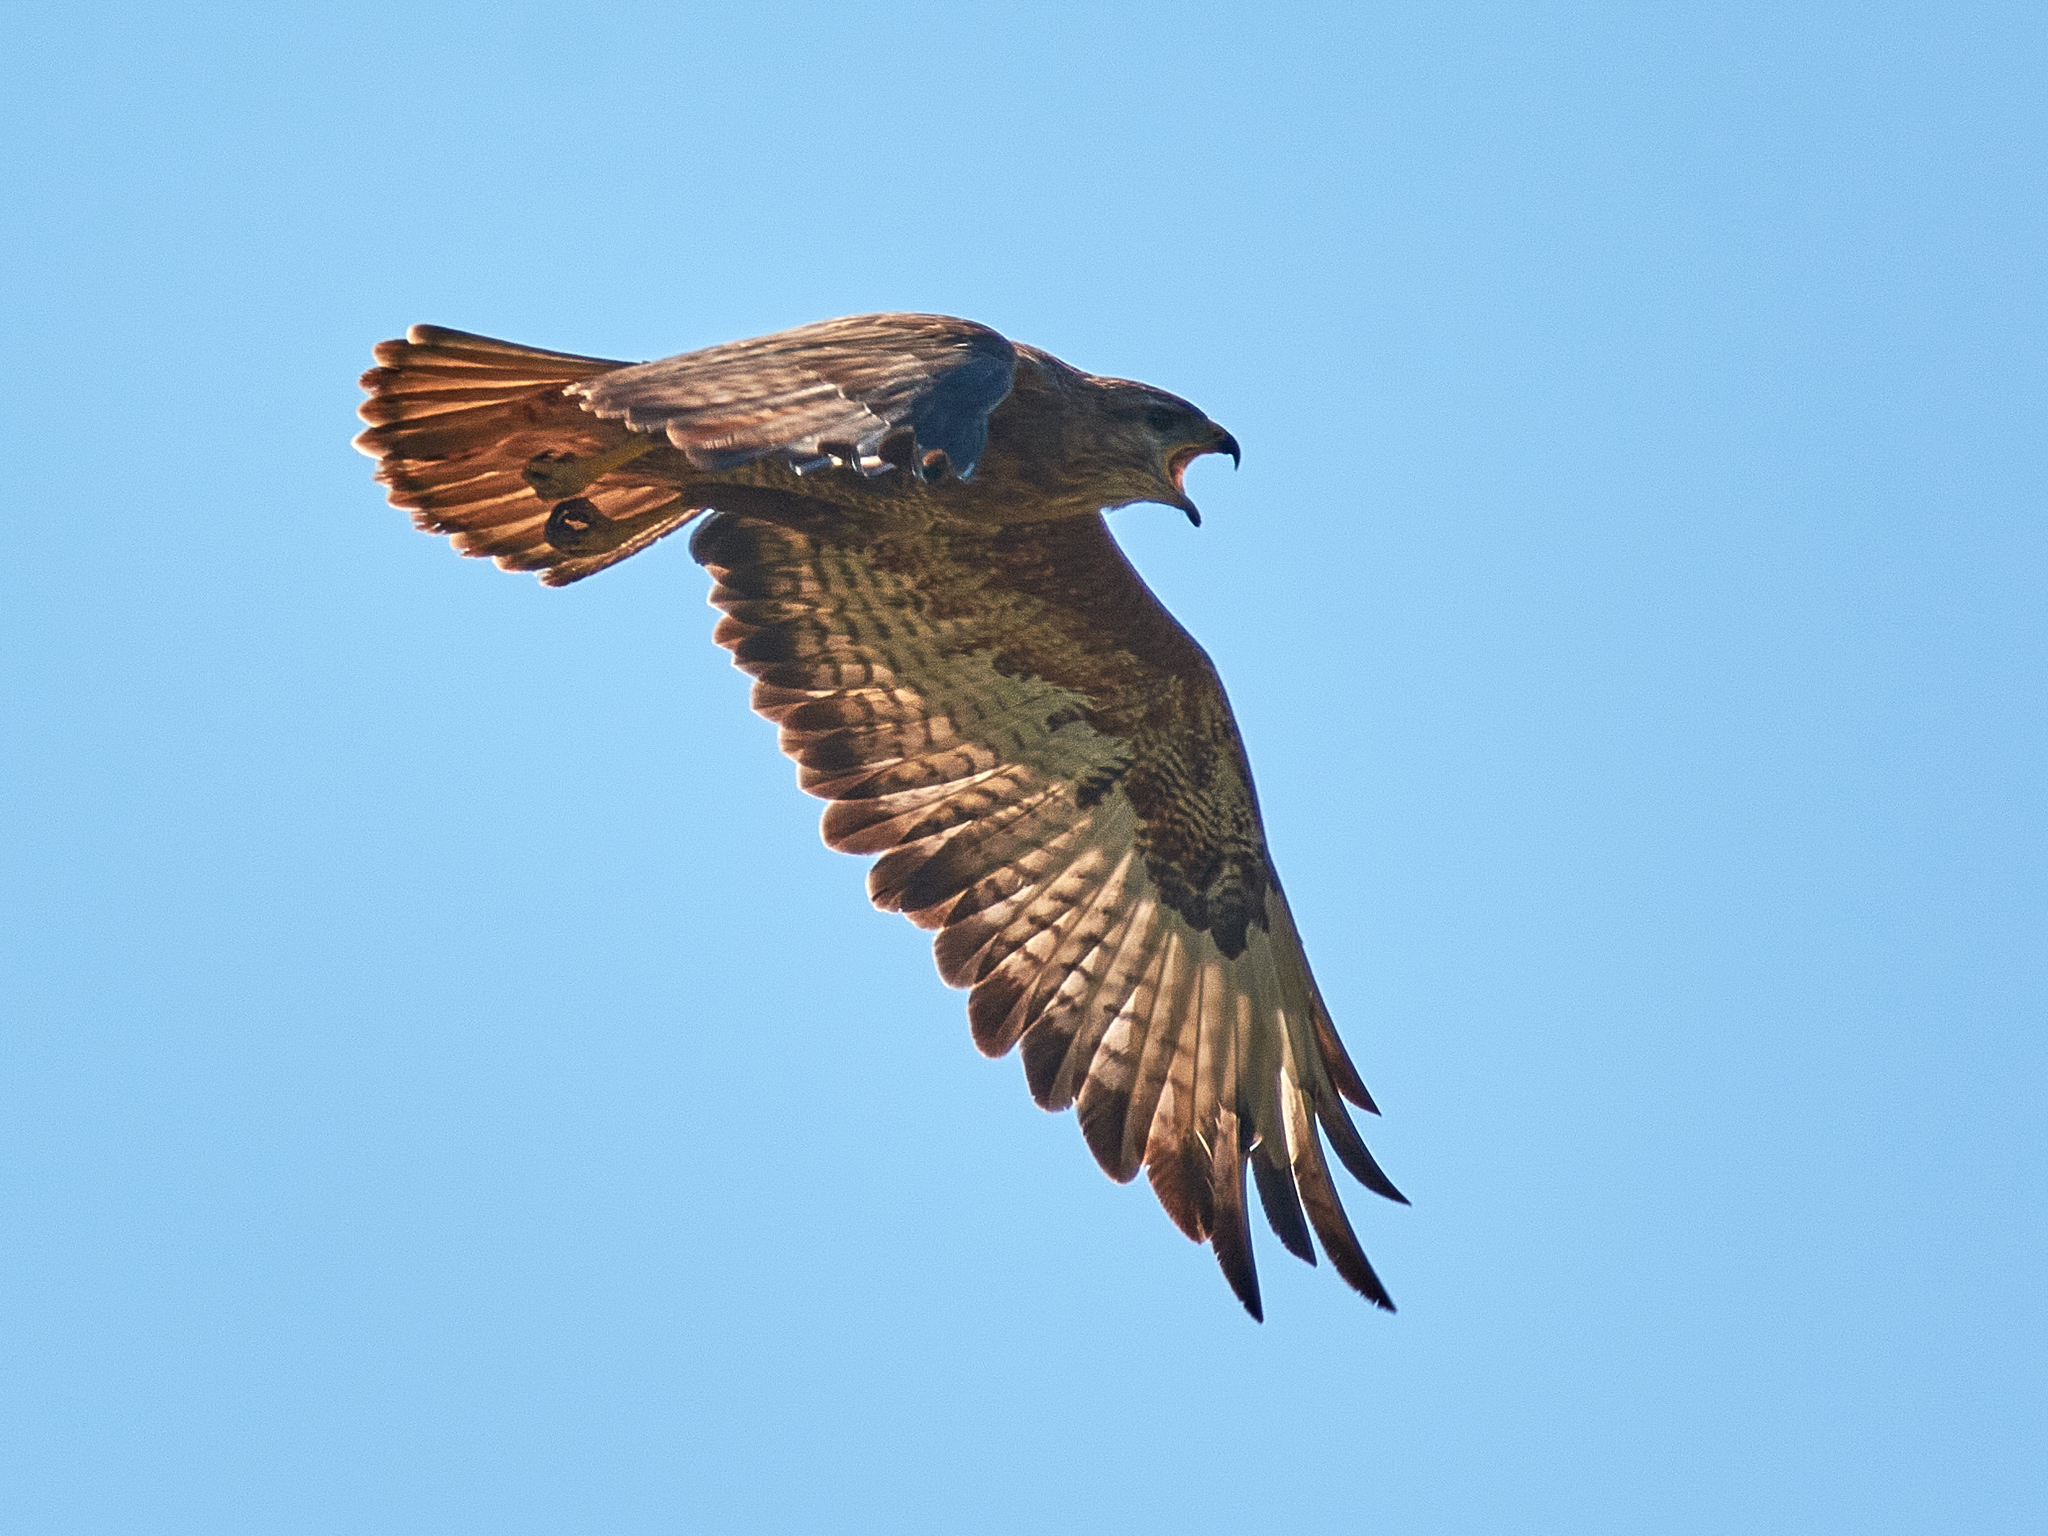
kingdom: Animalia
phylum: Chordata
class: Aves
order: Accipitriformes
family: Accipitridae
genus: Buteo
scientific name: Buteo buteo
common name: Common buzzard
